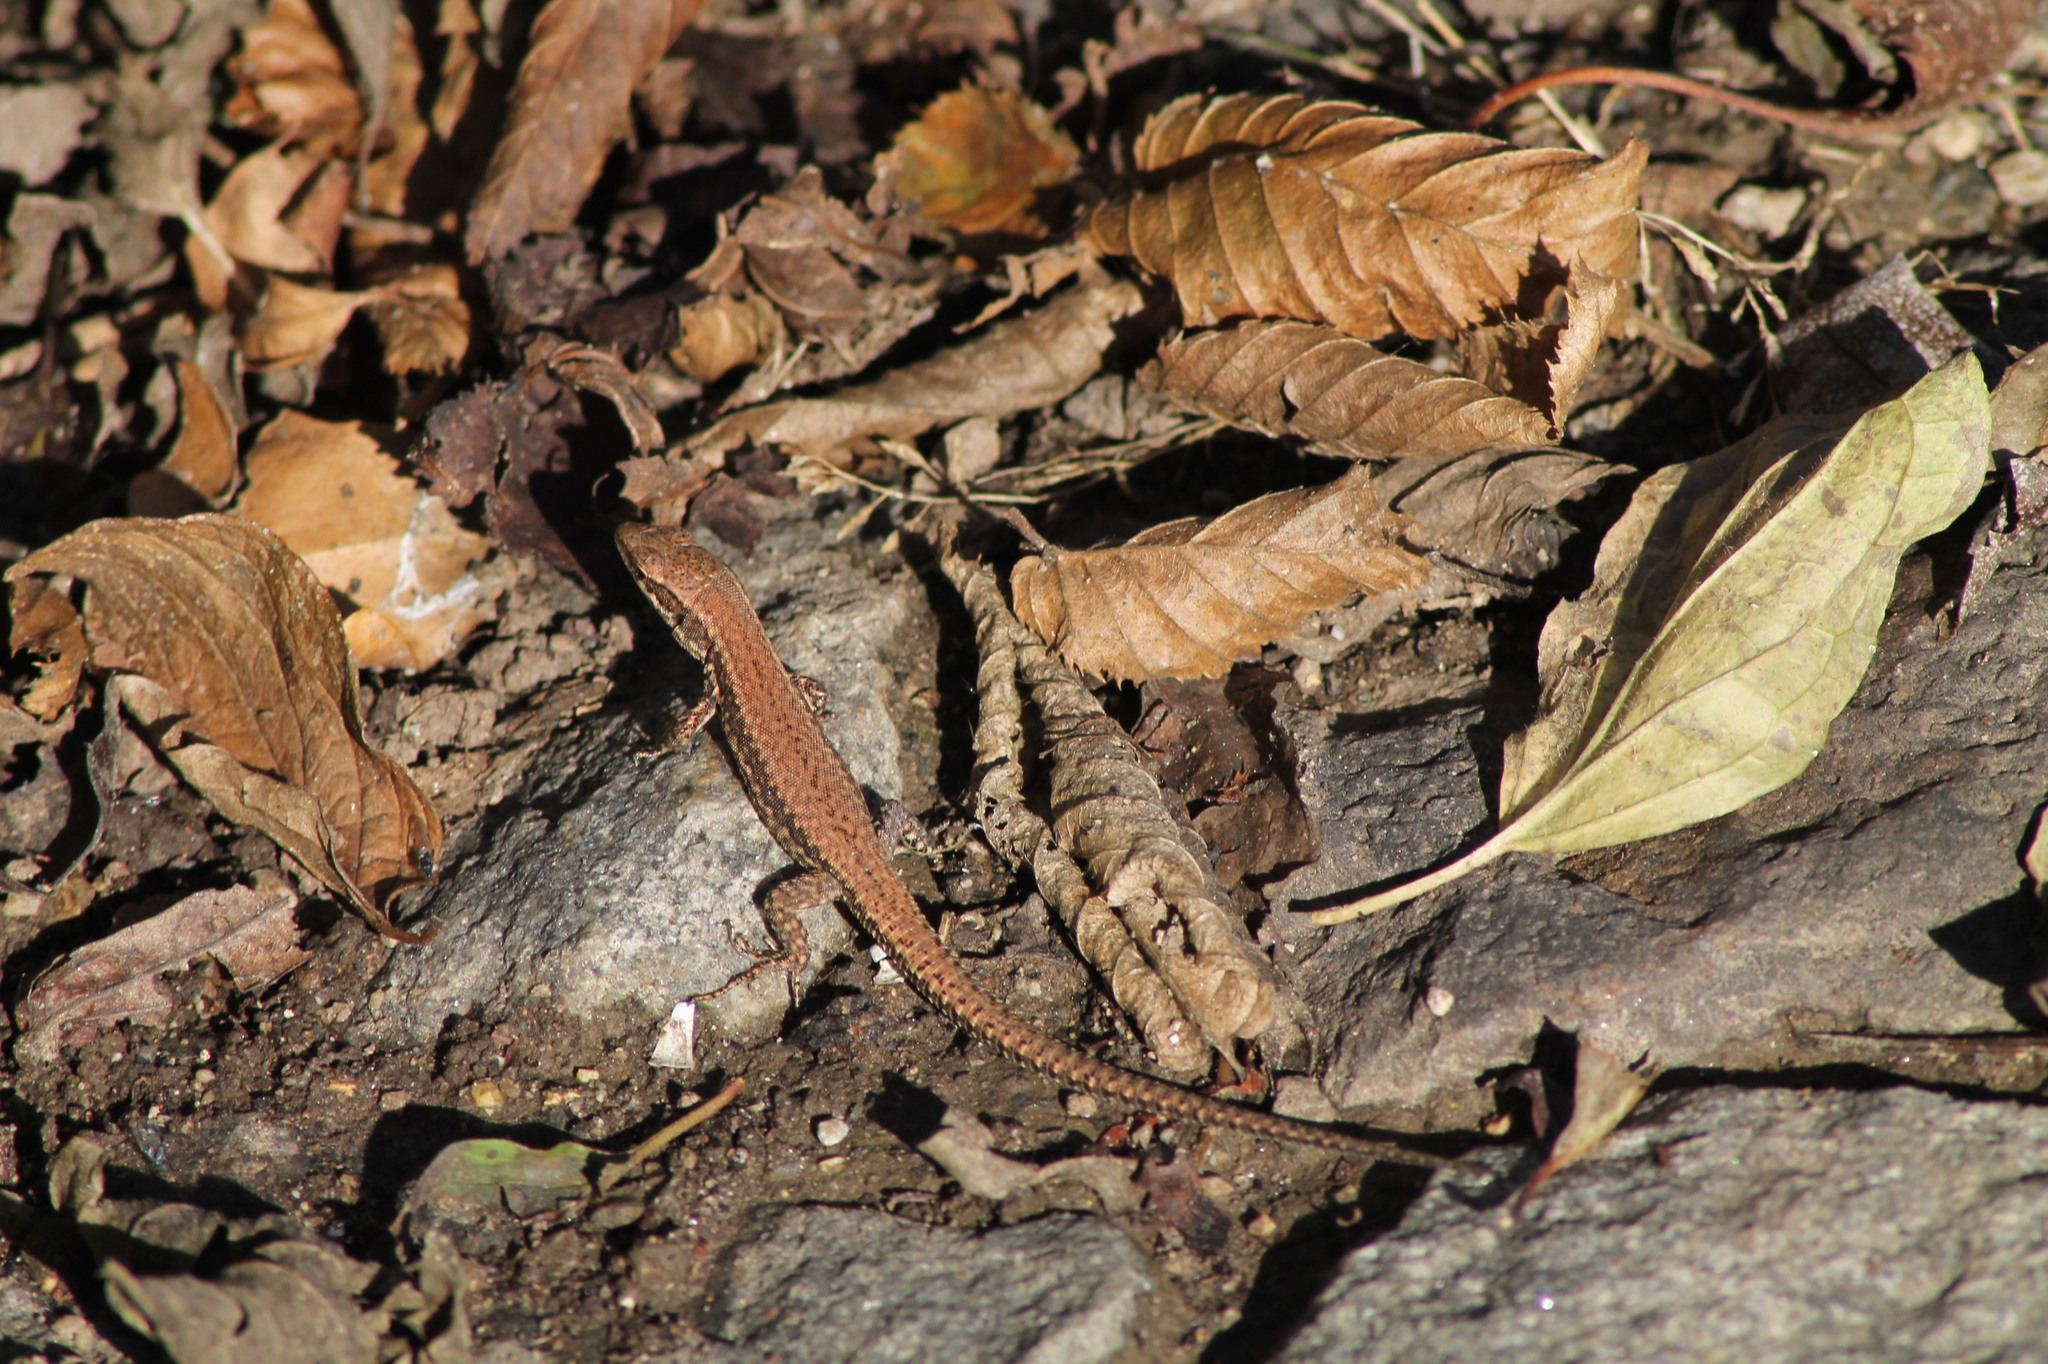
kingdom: Animalia
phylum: Chordata
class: Squamata
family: Lacertidae
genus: Podarcis
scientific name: Podarcis muralis
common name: Common wall lizard
